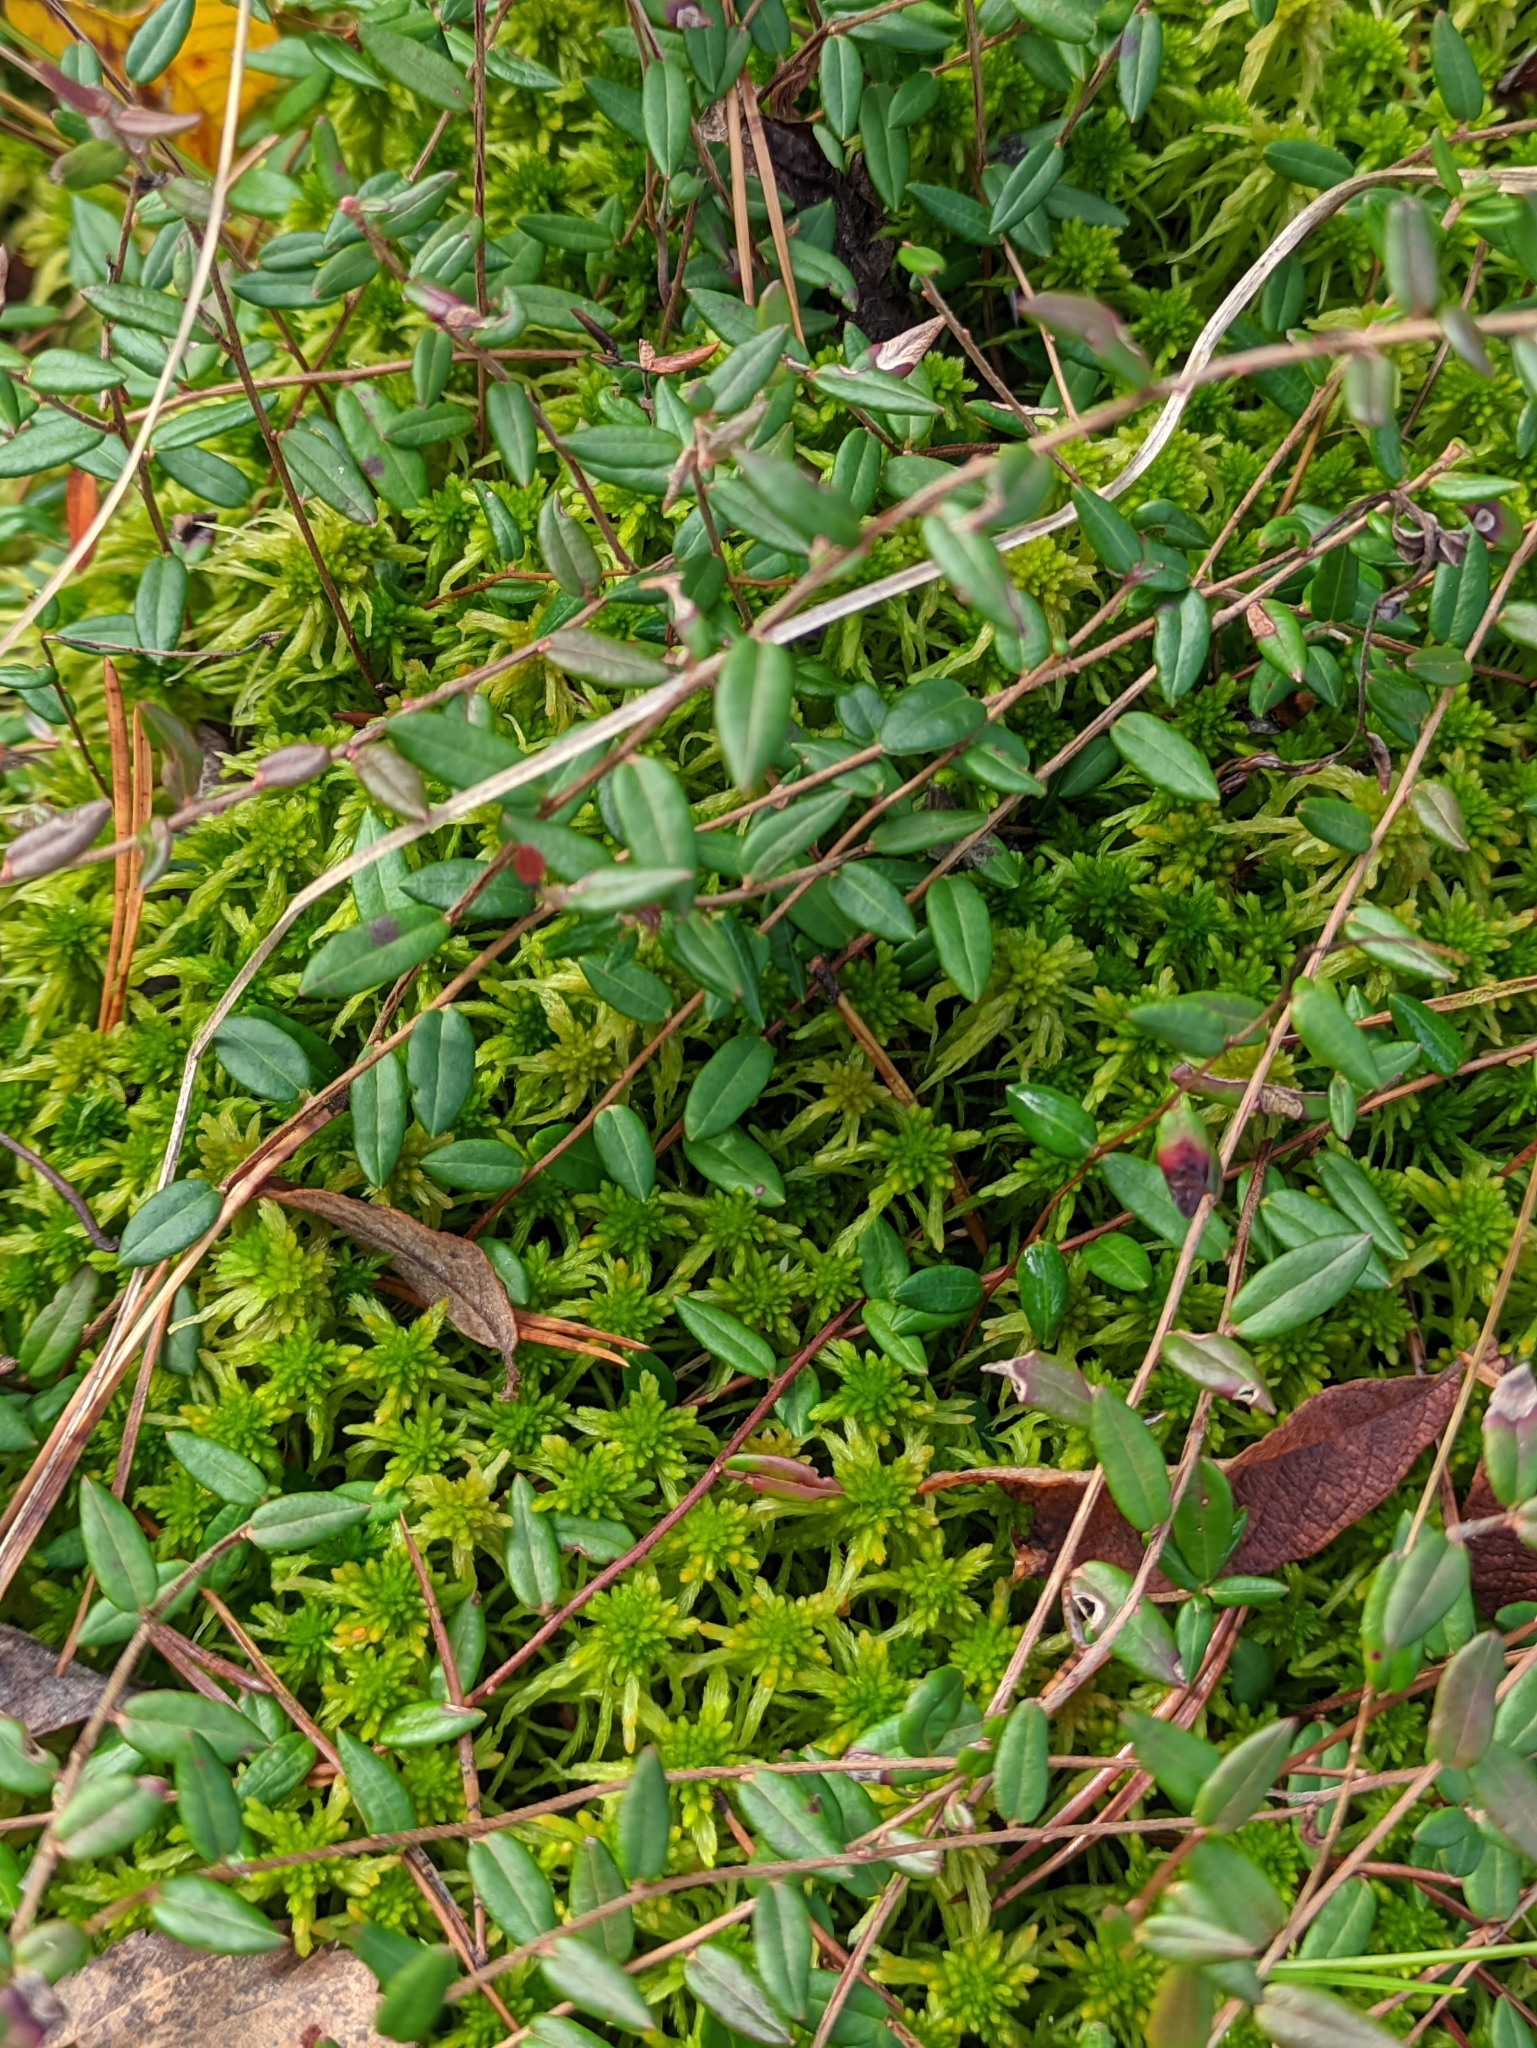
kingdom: Plantae
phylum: Tracheophyta
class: Magnoliopsida
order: Ericales
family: Ericaceae
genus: Vaccinium
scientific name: Vaccinium oxycoccos
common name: Cranberry
